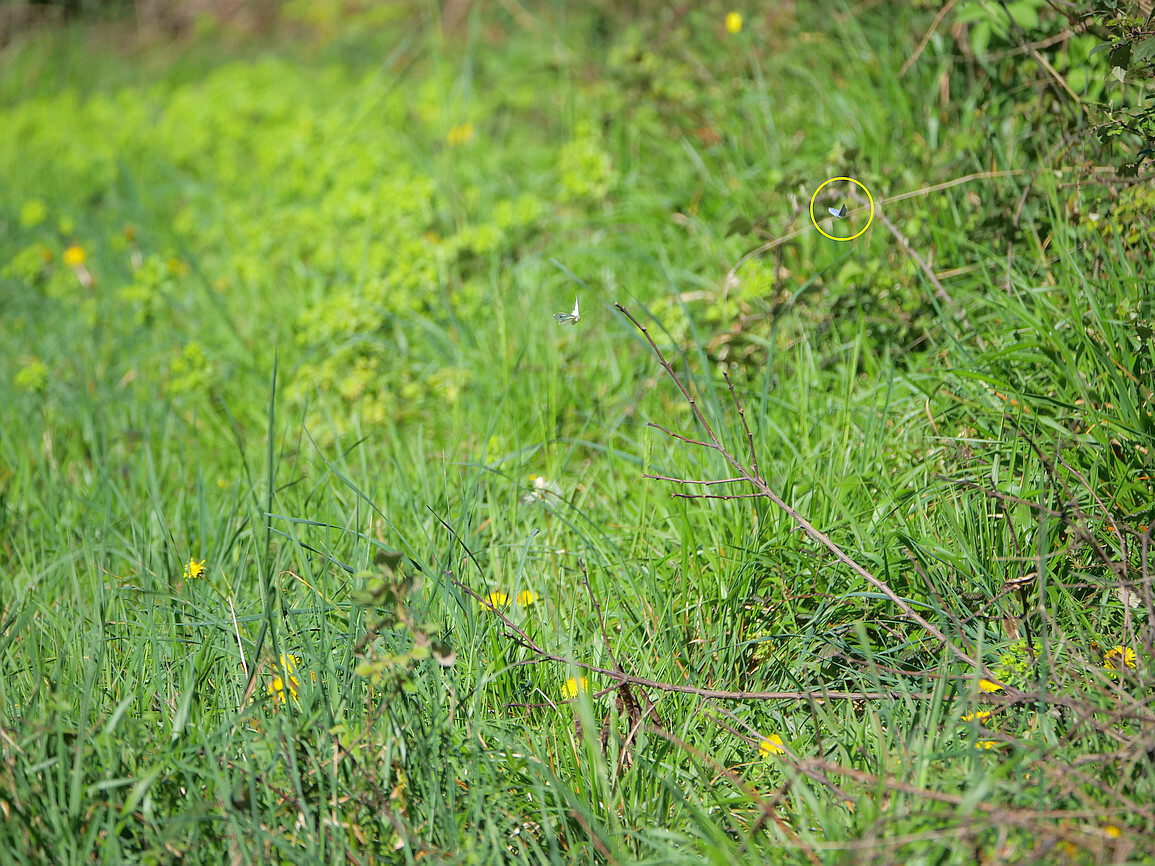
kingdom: Animalia
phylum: Arthropoda
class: Insecta
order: Lepidoptera
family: Lycaenidae
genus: Celastrina
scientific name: Celastrina argiolus
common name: Holly blue
